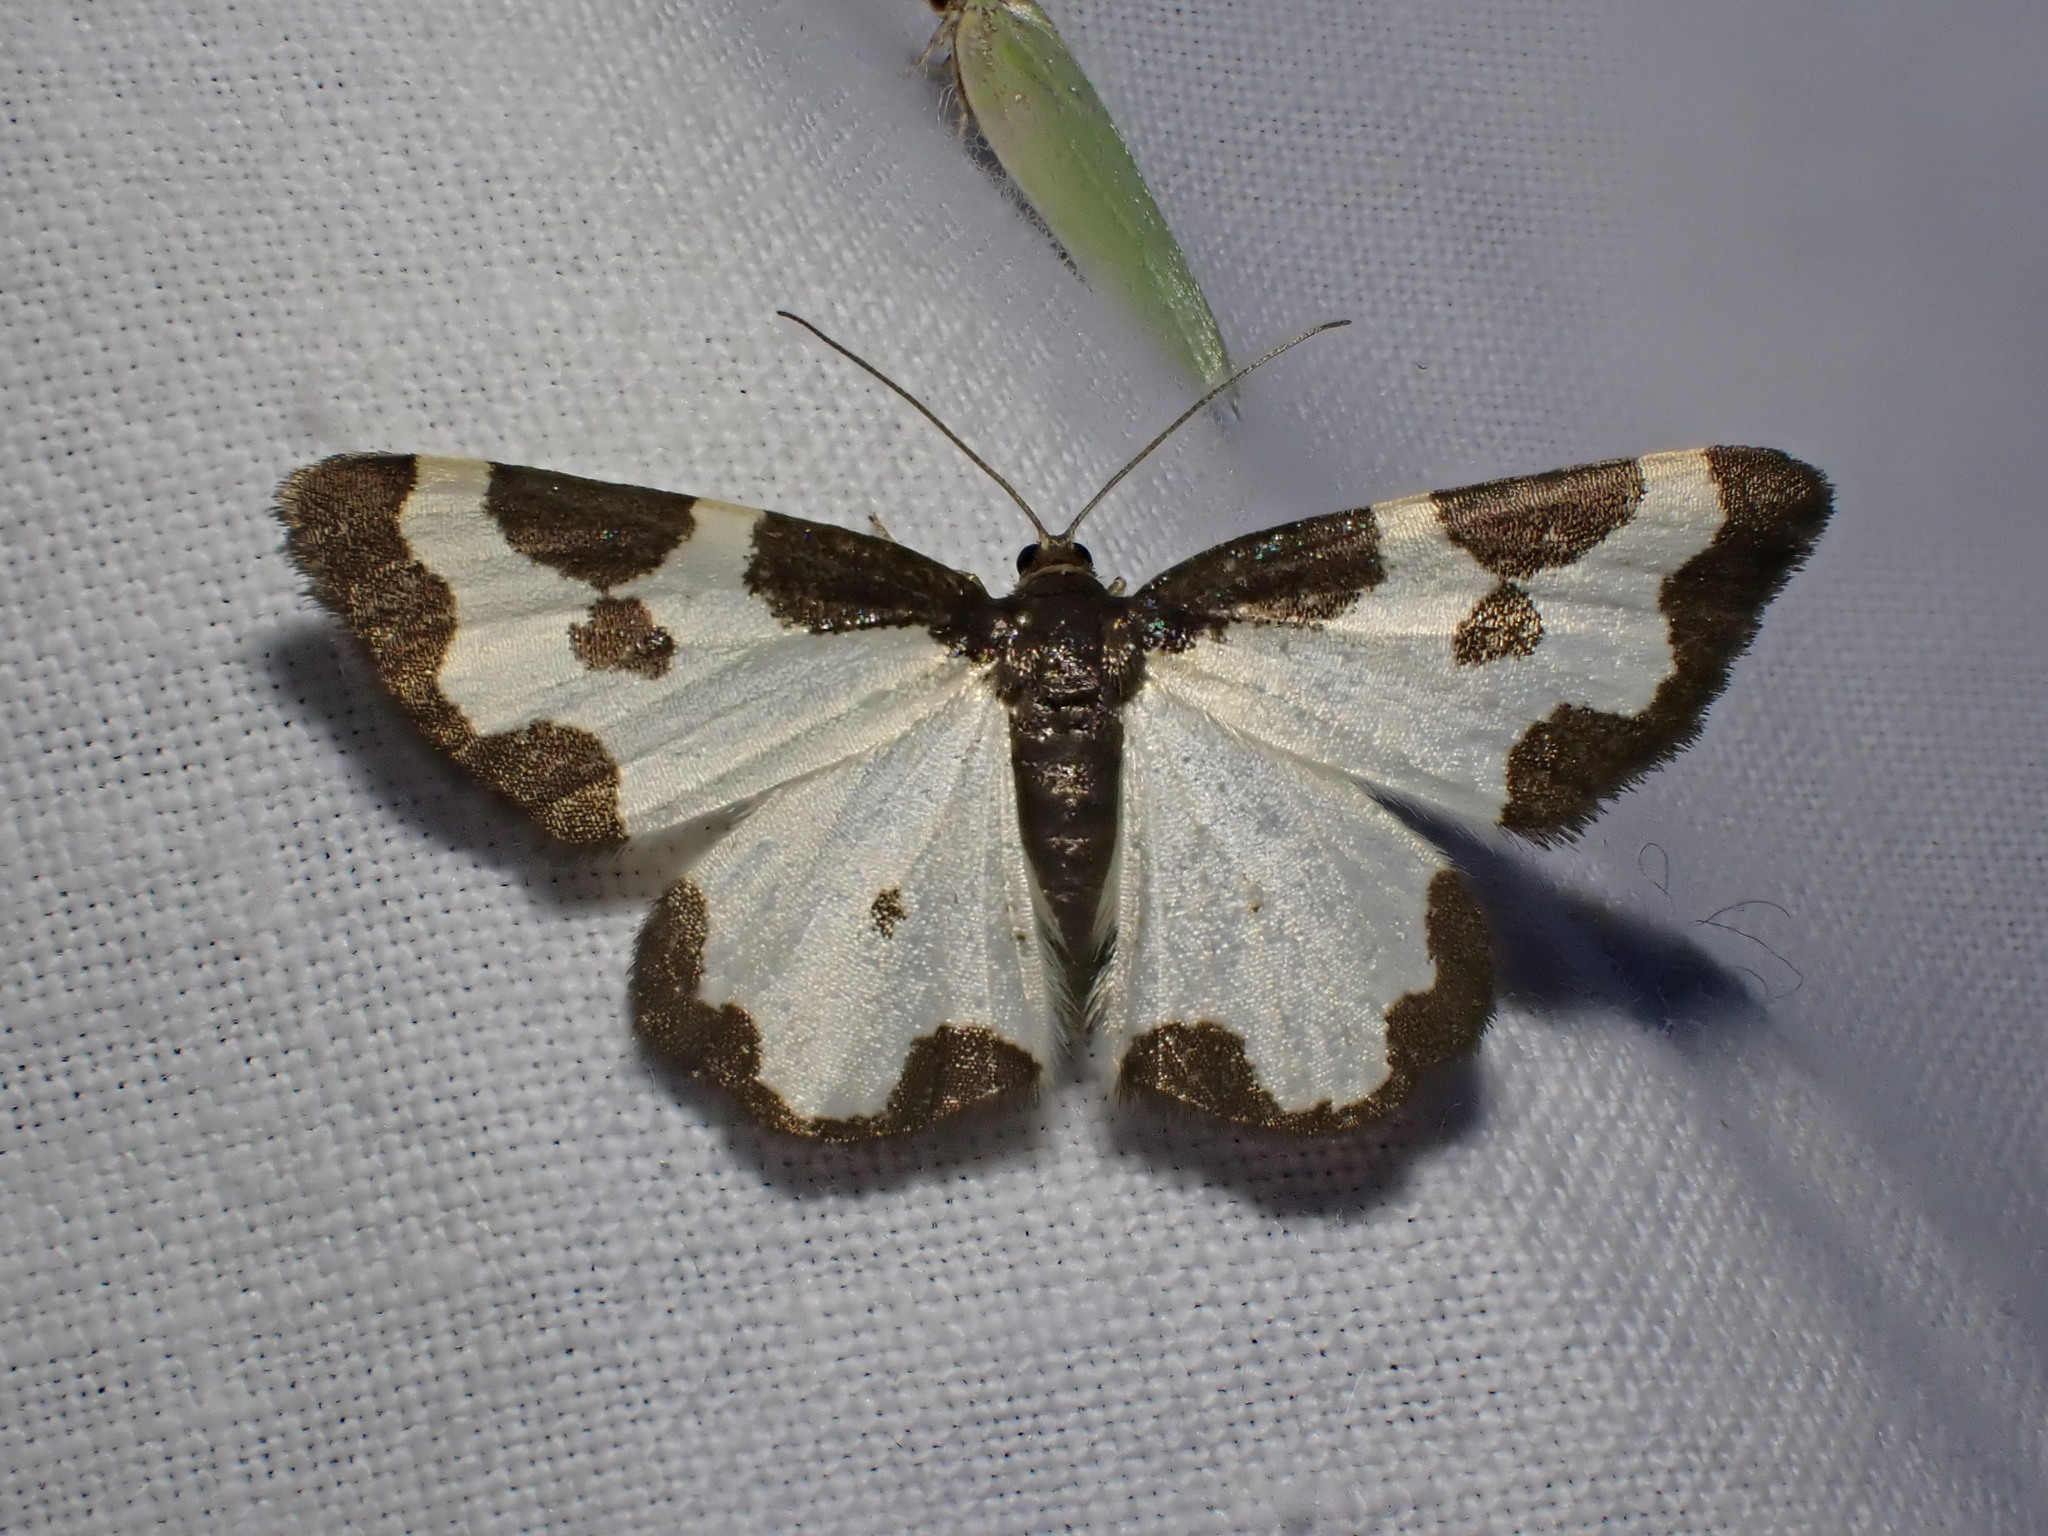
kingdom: Animalia
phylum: Arthropoda
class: Insecta
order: Lepidoptera
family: Geometridae
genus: Lomaspilis
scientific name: Lomaspilis marginata
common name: Clouded border
